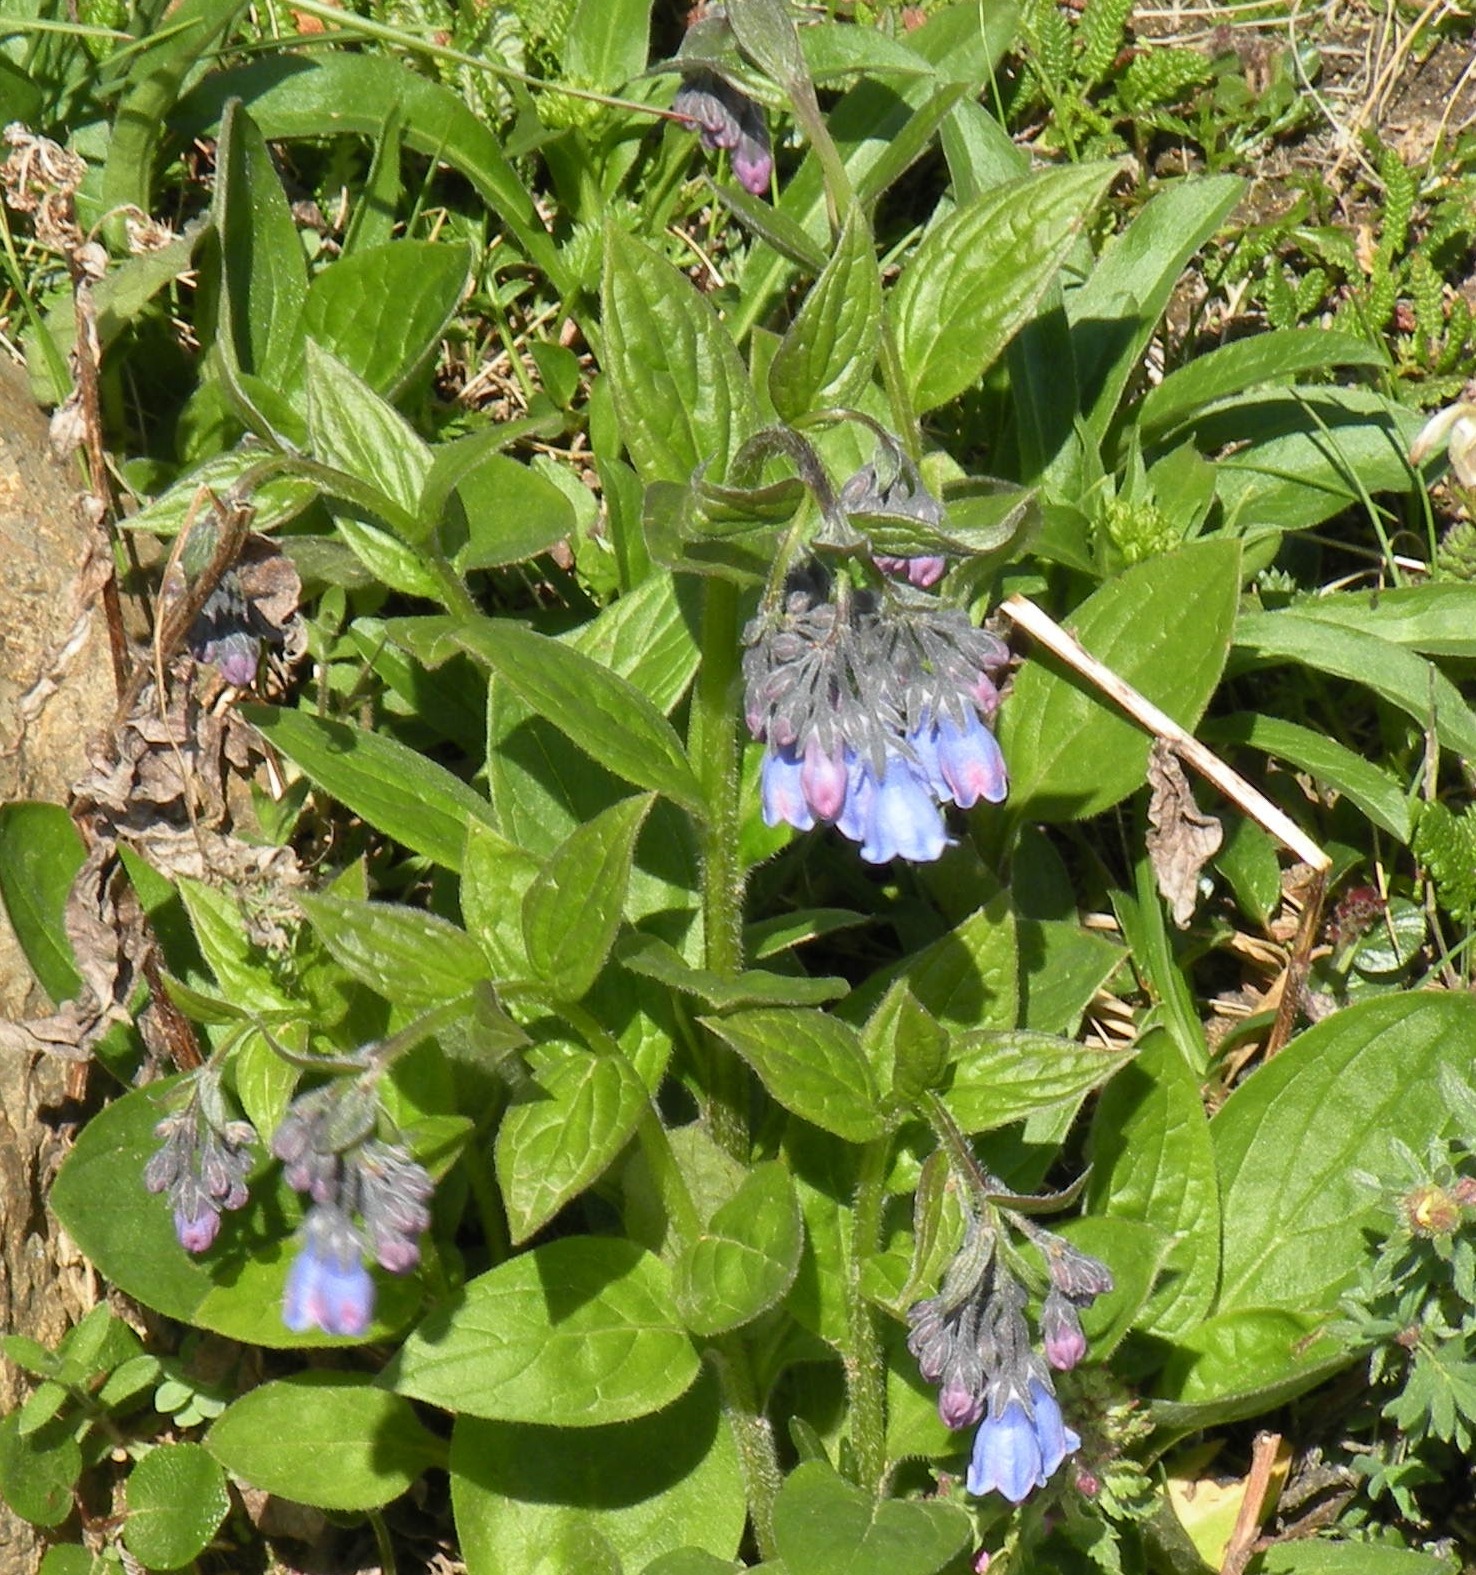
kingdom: Plantae
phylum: Tracheophyta
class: Magnoliopsida
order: Boraginales
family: Boraginaceae
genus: Mertensia
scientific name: Mertensia paniculata
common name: Panicled bluebells
